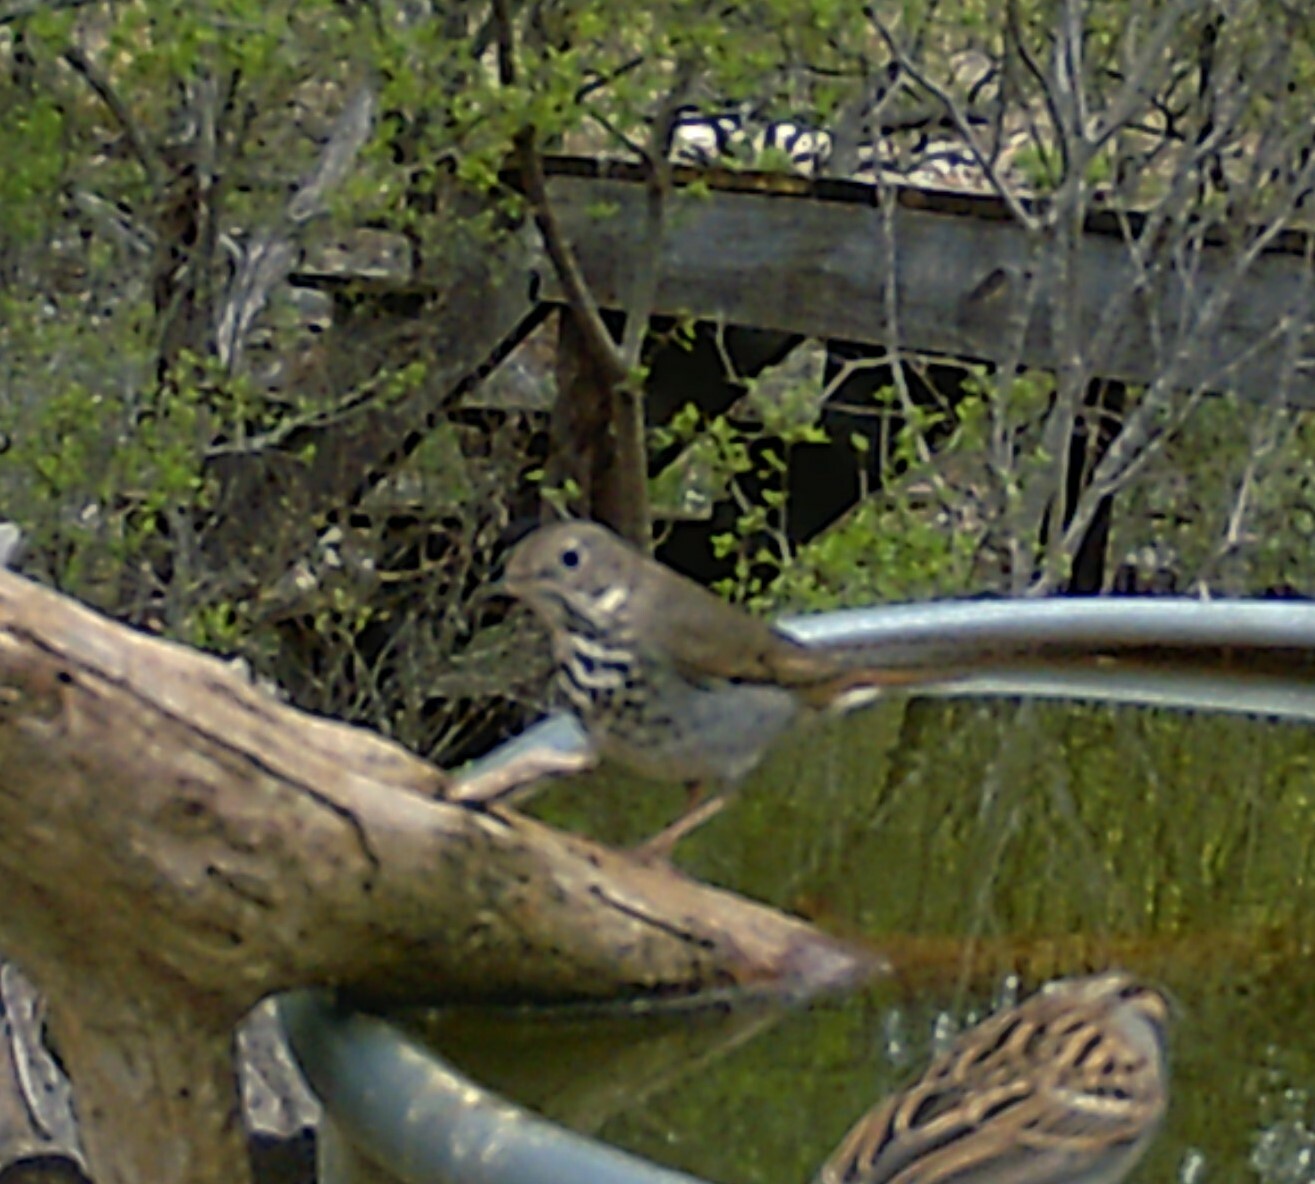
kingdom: Animalia
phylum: Chordata
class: Aves
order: Passeriformes
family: Turdidae
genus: Catharus
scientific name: Catharus guttatus
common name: Hermit thrush
